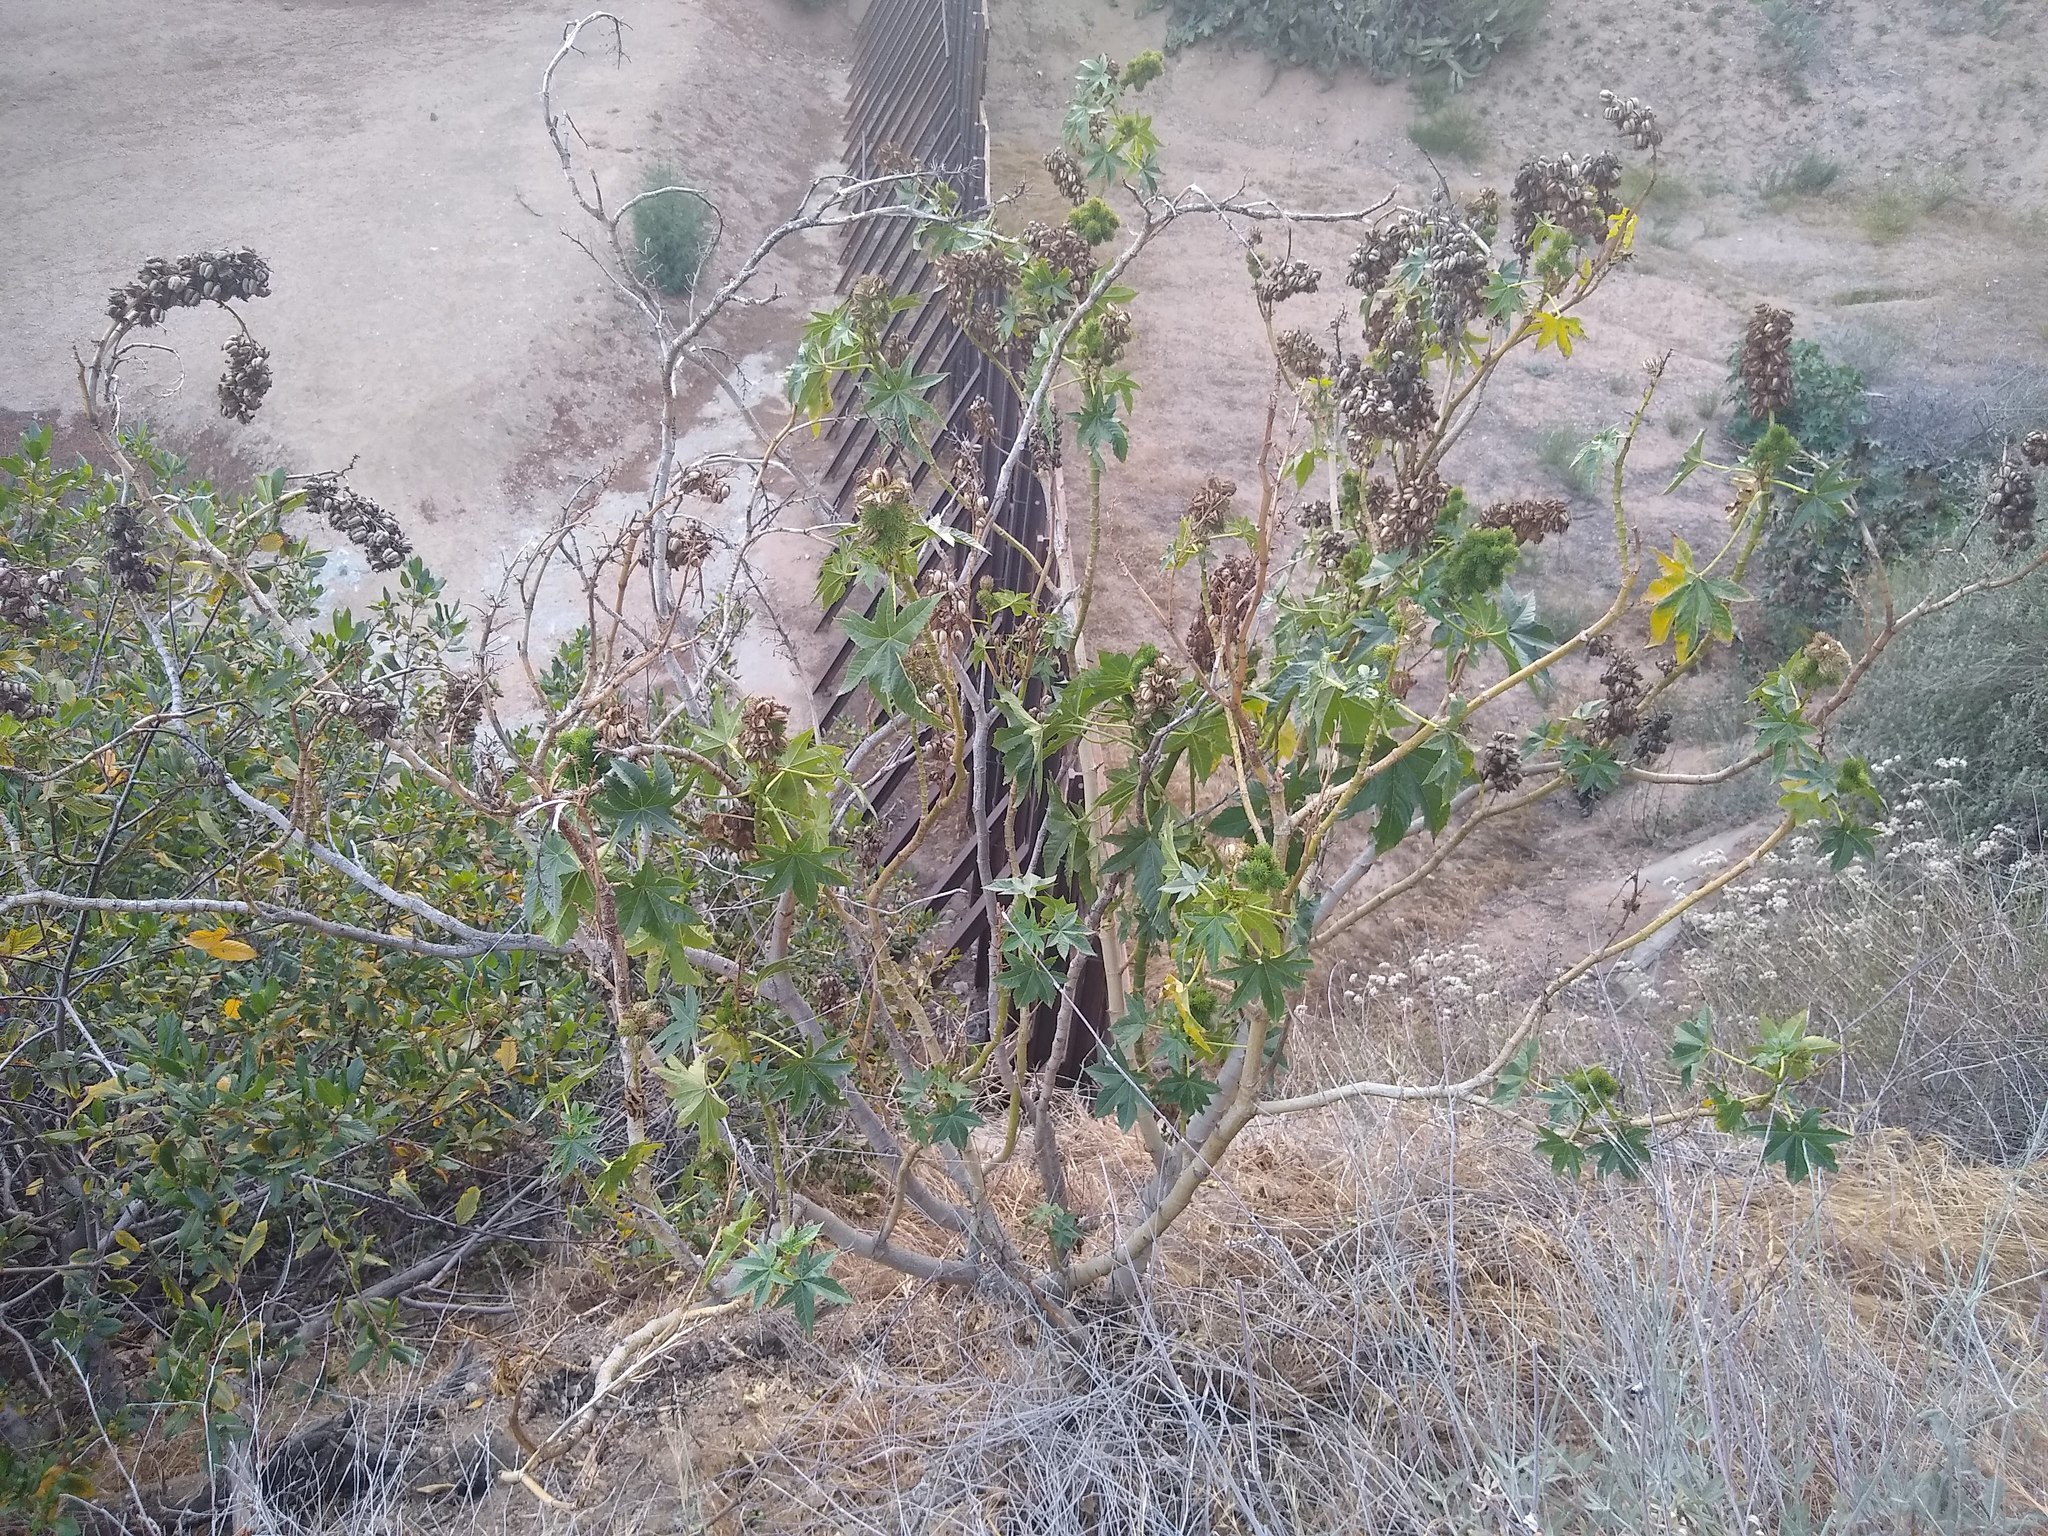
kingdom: Plantae
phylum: Tracheophyta
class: Magnoliopsida
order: Malpighiales
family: Euphorbiaceae
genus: Ricinus
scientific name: Ricinus communis
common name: Castor-oil-plant
